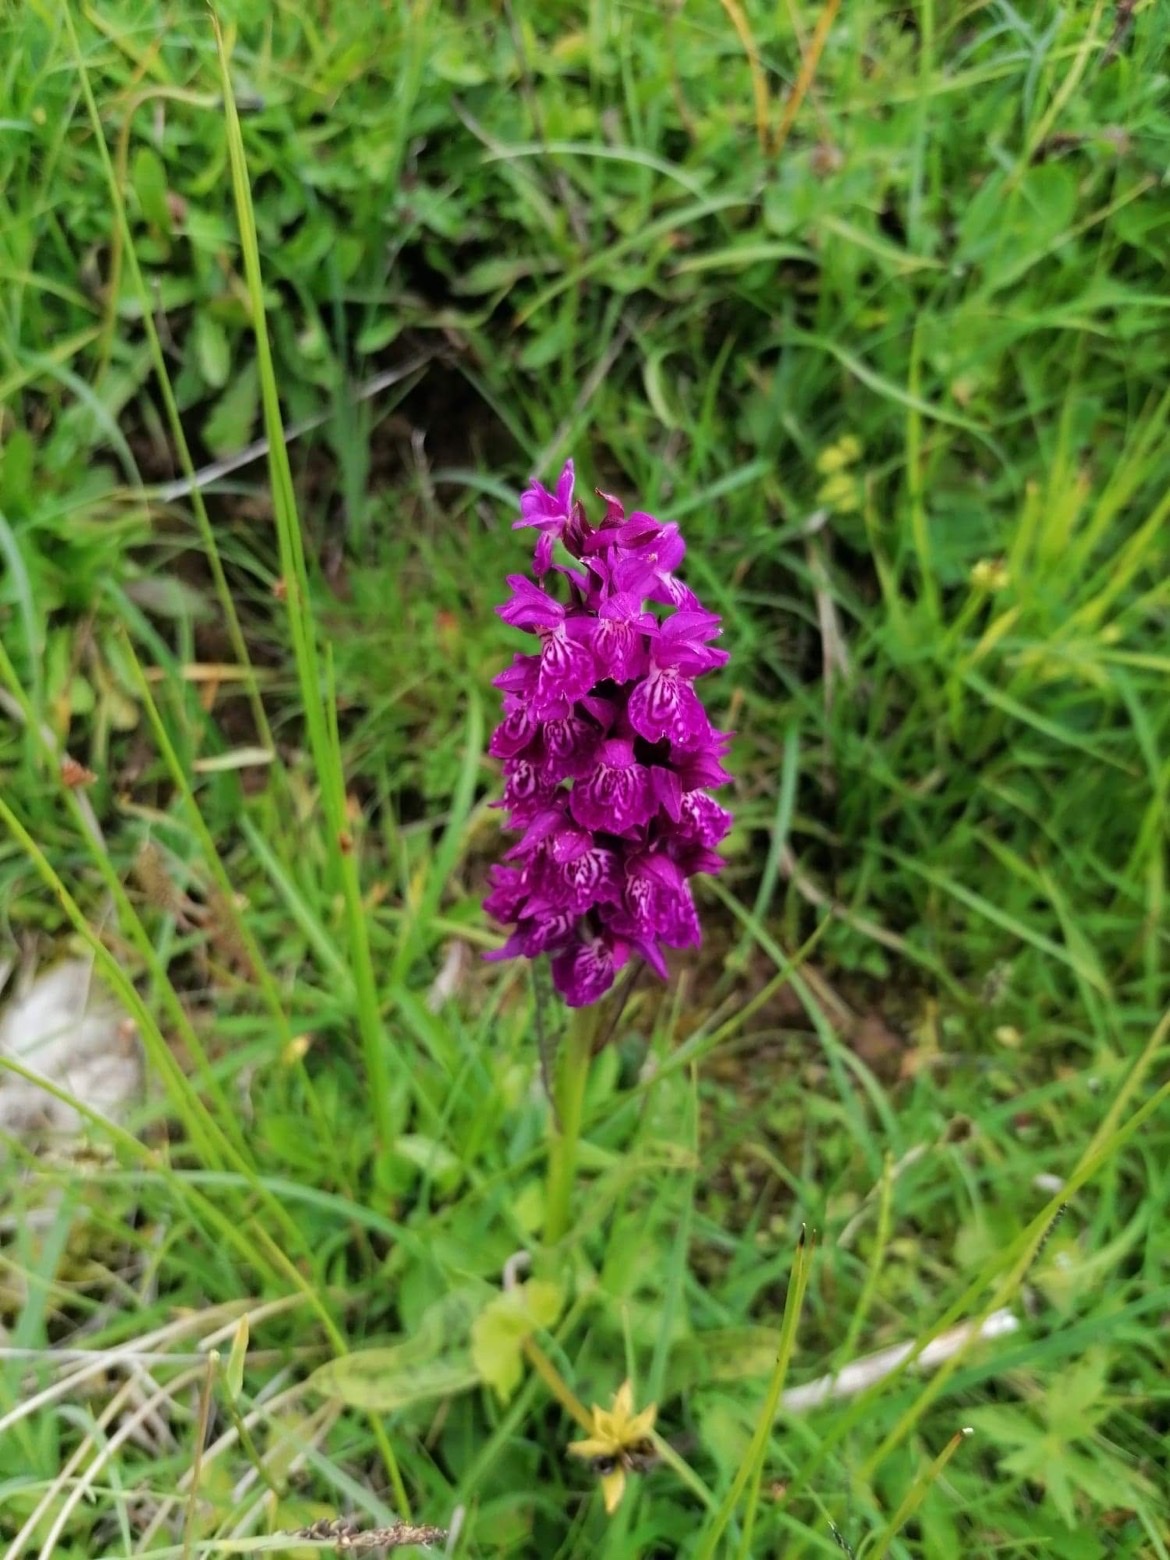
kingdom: Plantae
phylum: Tracheophyta
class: Liliopsida
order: Asparagales
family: Orchidaceae
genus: Dactylorhiza
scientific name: Dactylorhiza maculata
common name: Heath spotted-orchid
